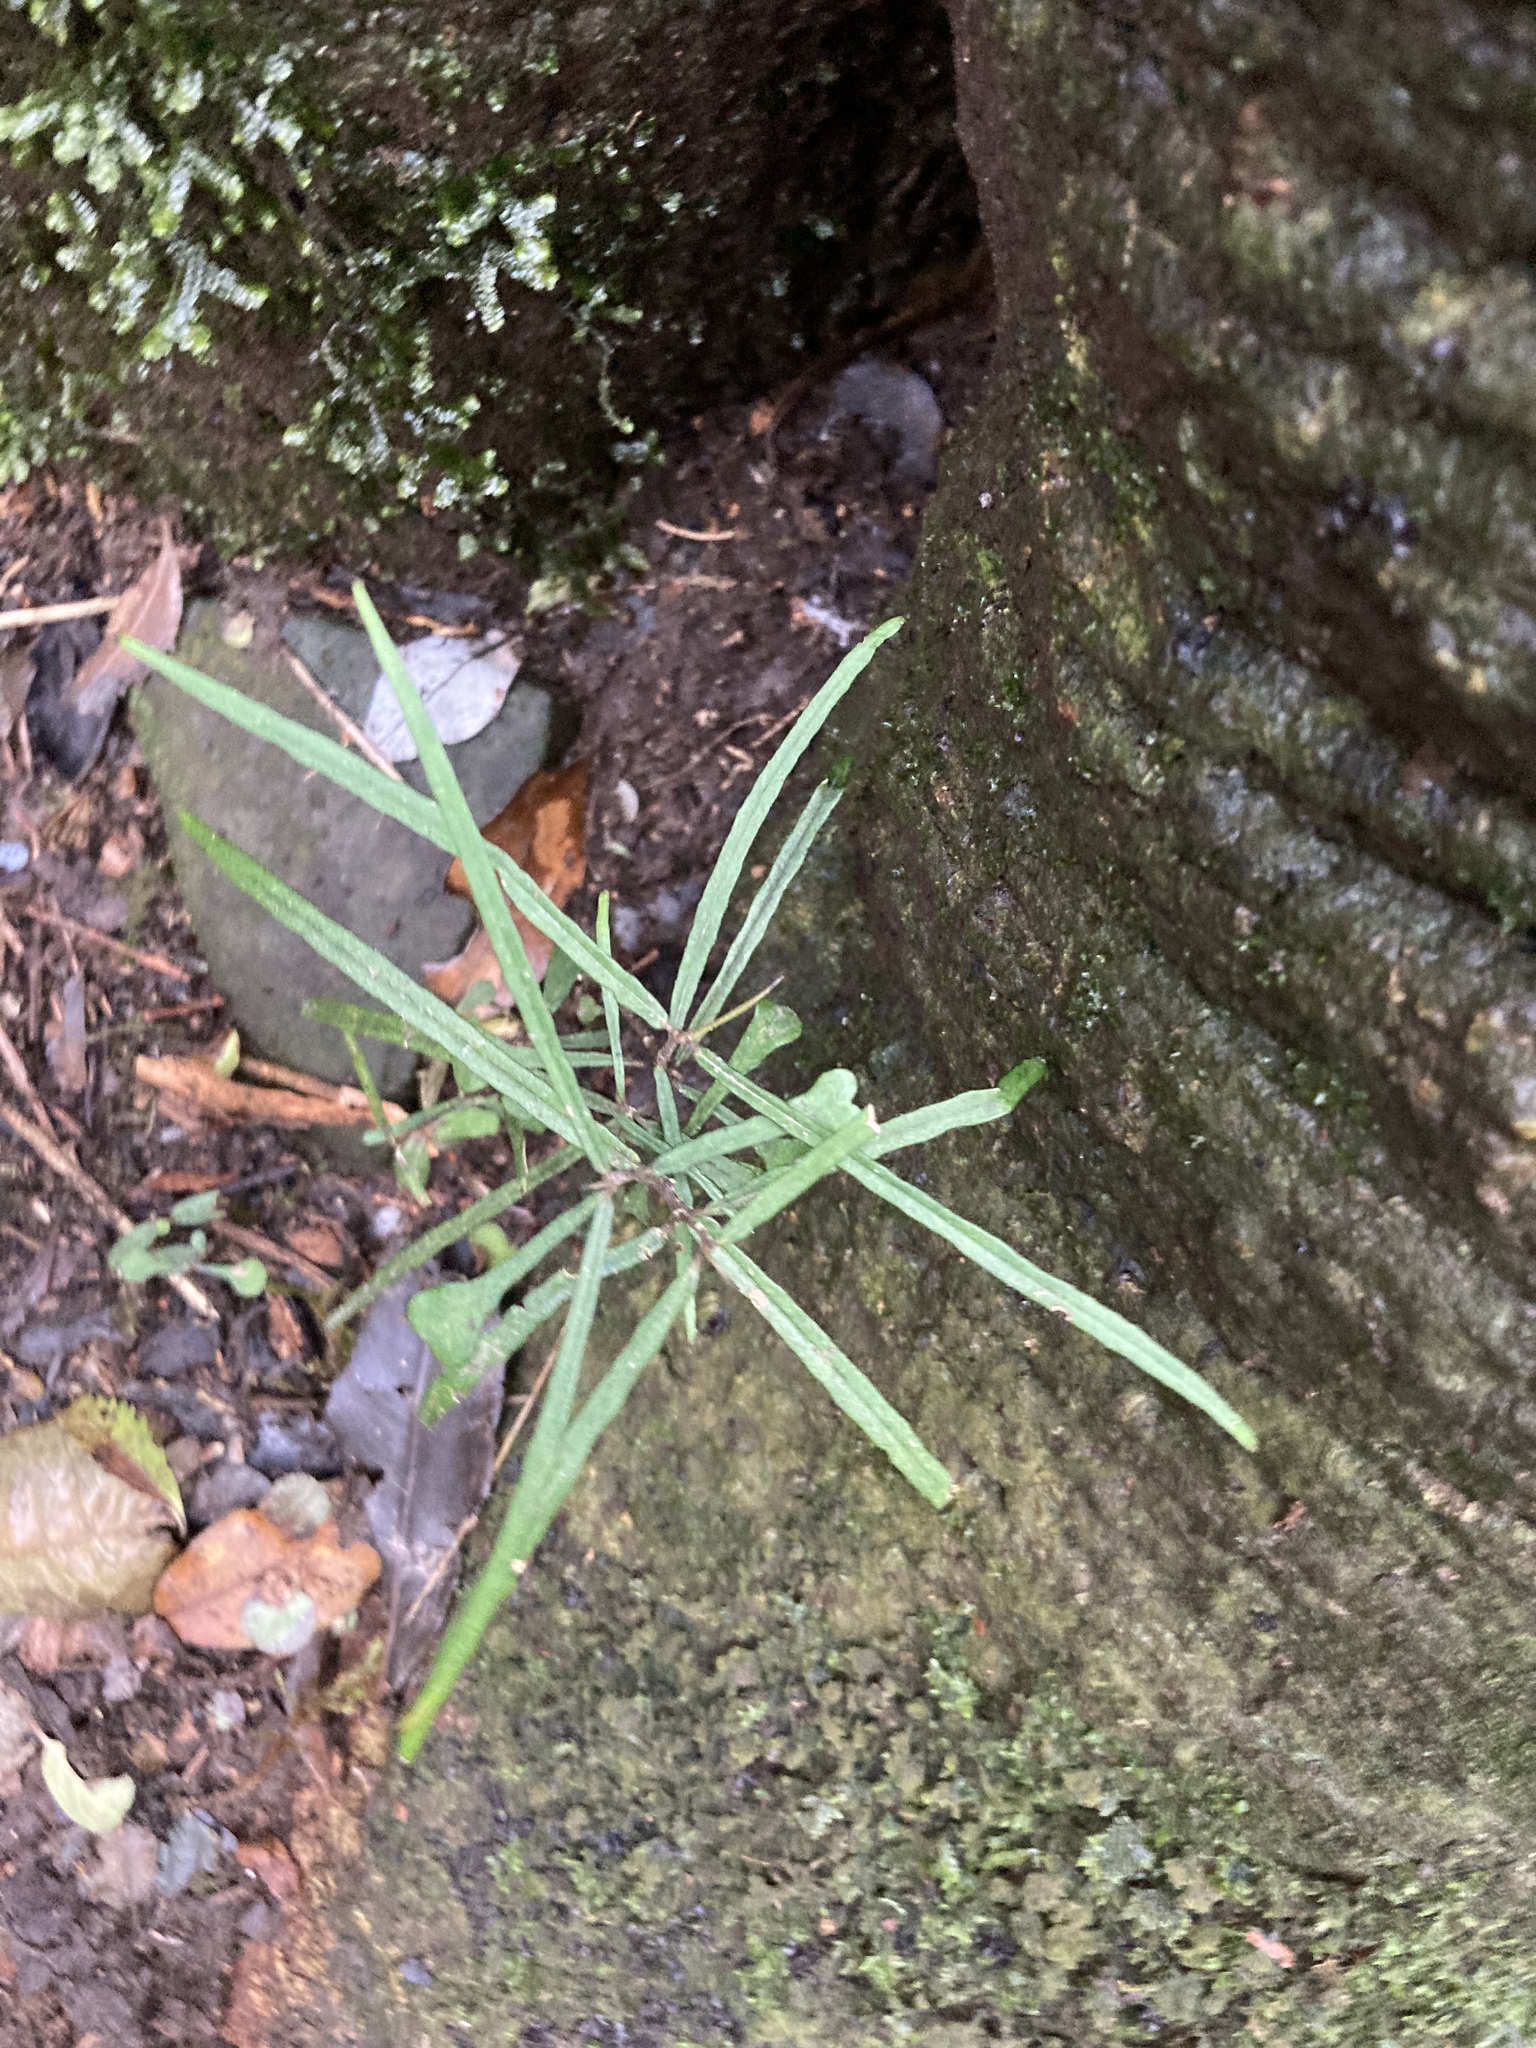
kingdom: Plantae
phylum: Tracheophyta
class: Magnoliopsida
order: Gentianales
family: Apocynaceae
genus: Parsonsia
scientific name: Parsonsia heterophylla
